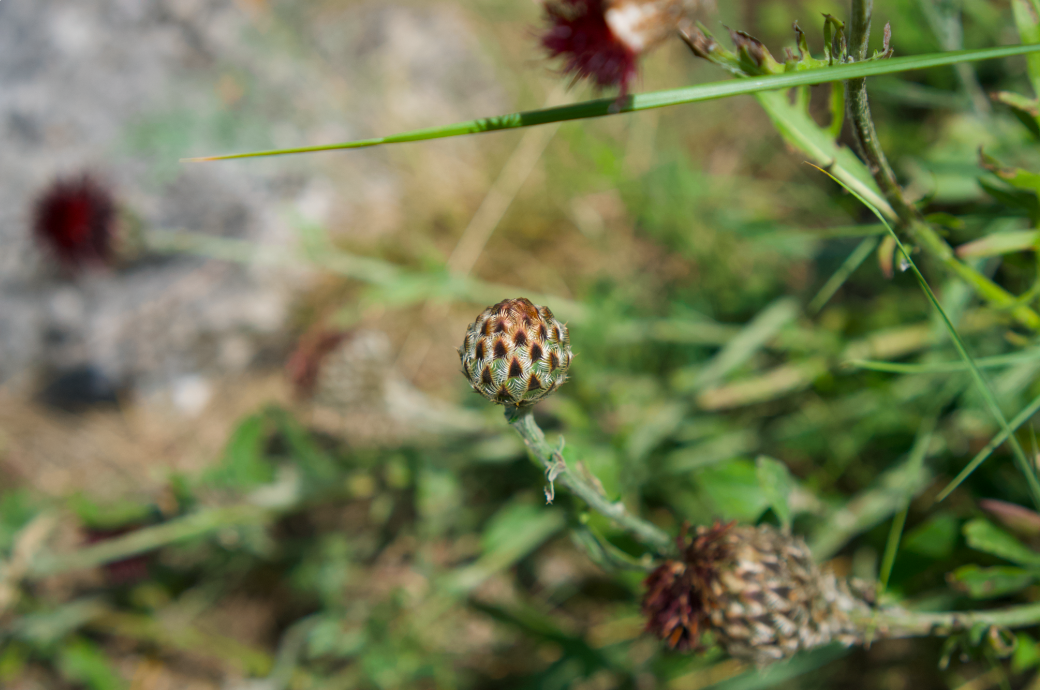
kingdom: Plantae
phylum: Tracheophyta
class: Magnoliopsida
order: Asterales
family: Asteraceae
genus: Centaurea
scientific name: Centaurea calocephala
